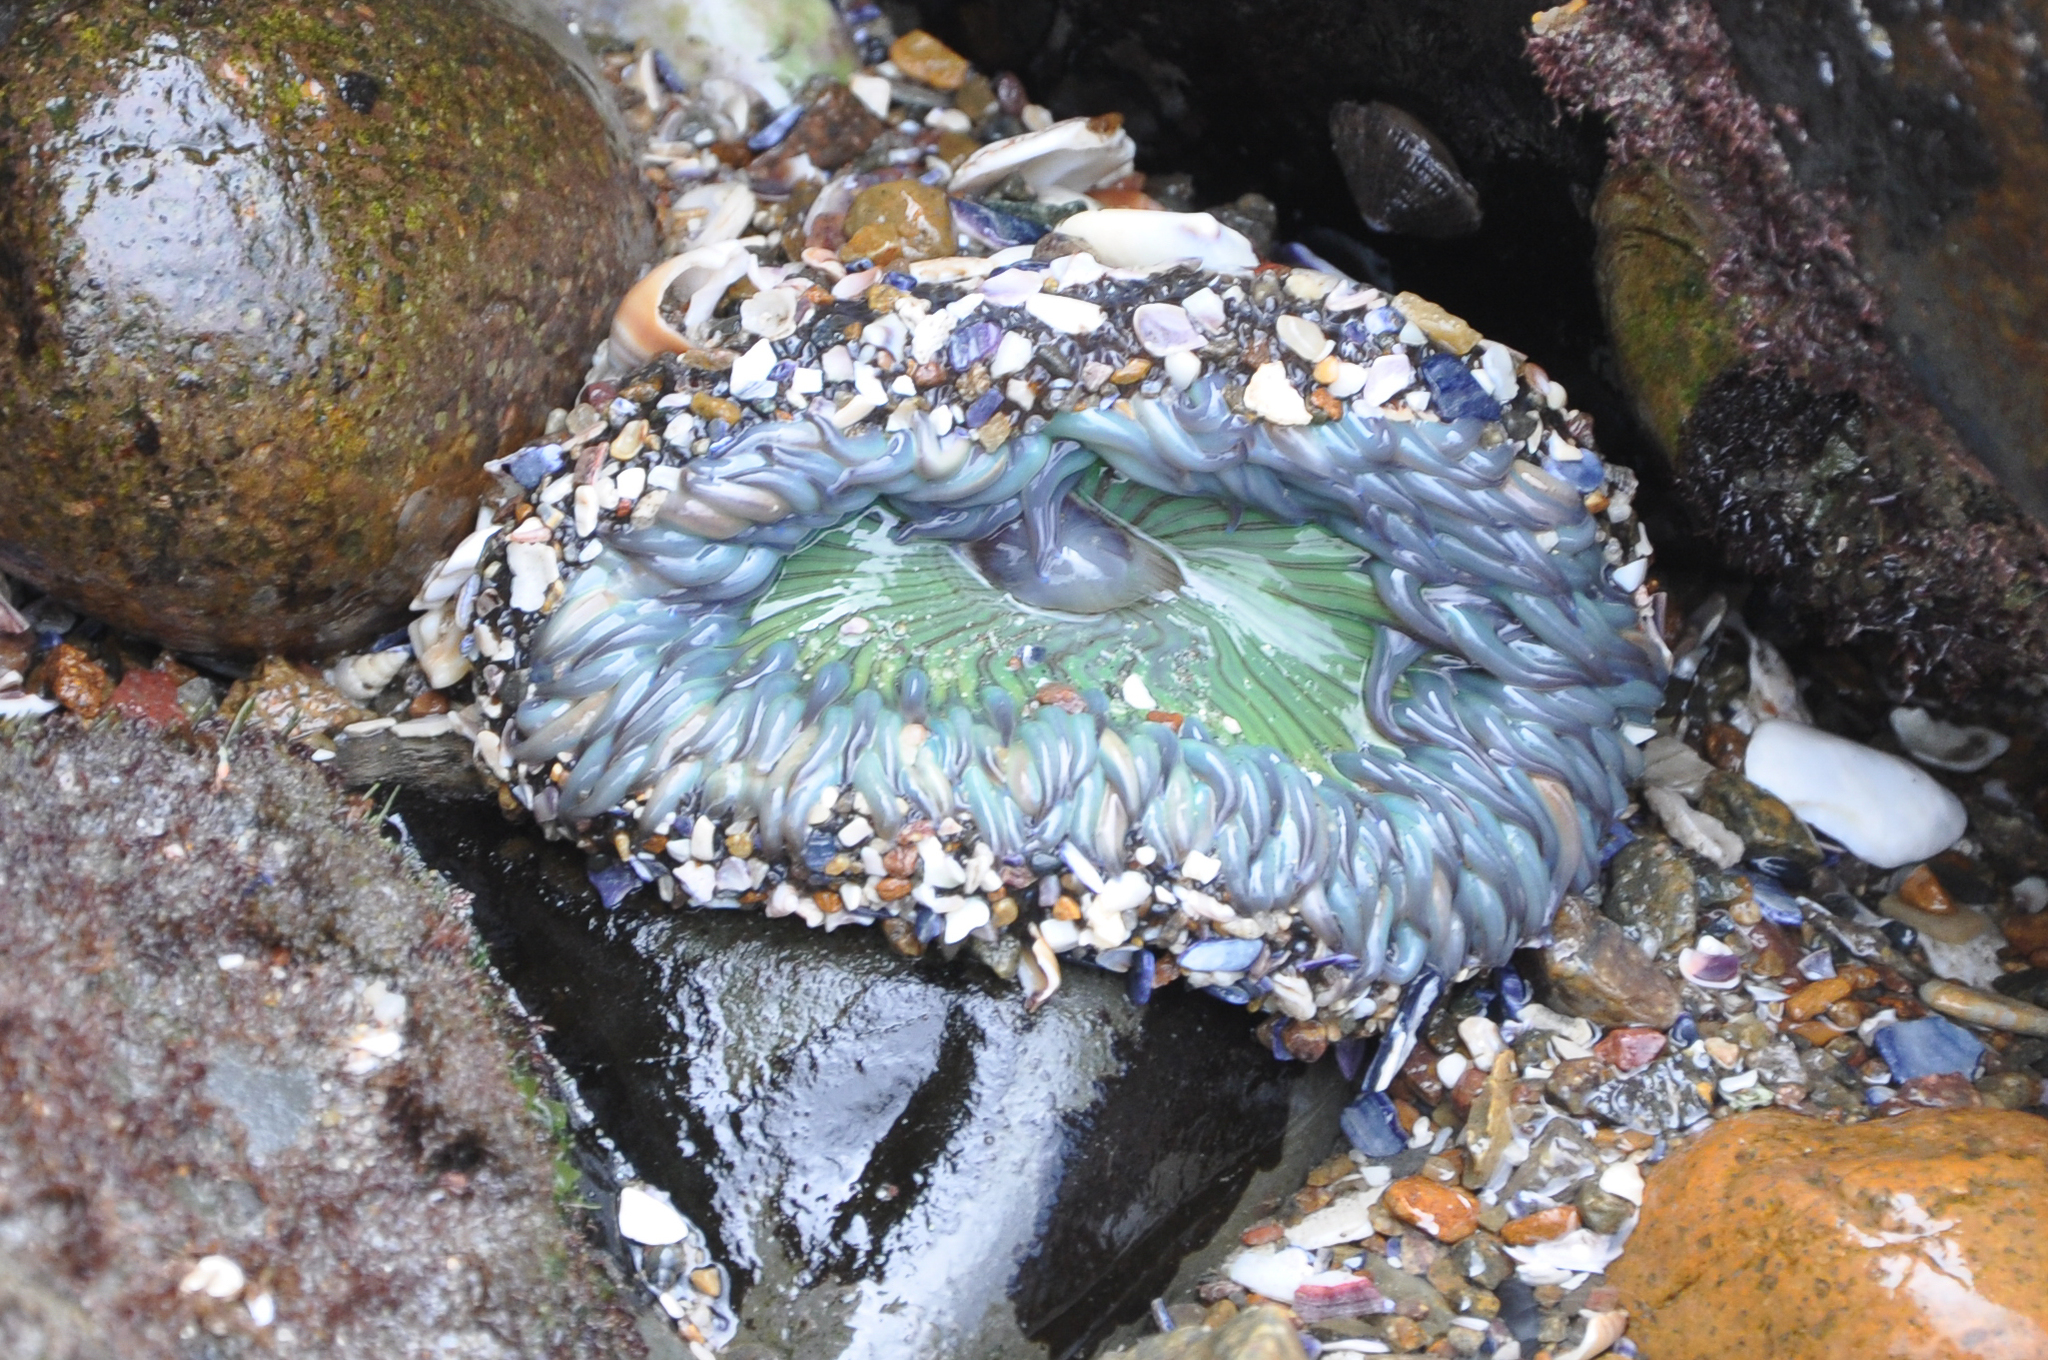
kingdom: Animalia
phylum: Cnidaria
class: Anthozoa
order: Actiniaria
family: Actiniidae
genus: Anthopleura
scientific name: Anthopleura sola
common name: Sun anemone
